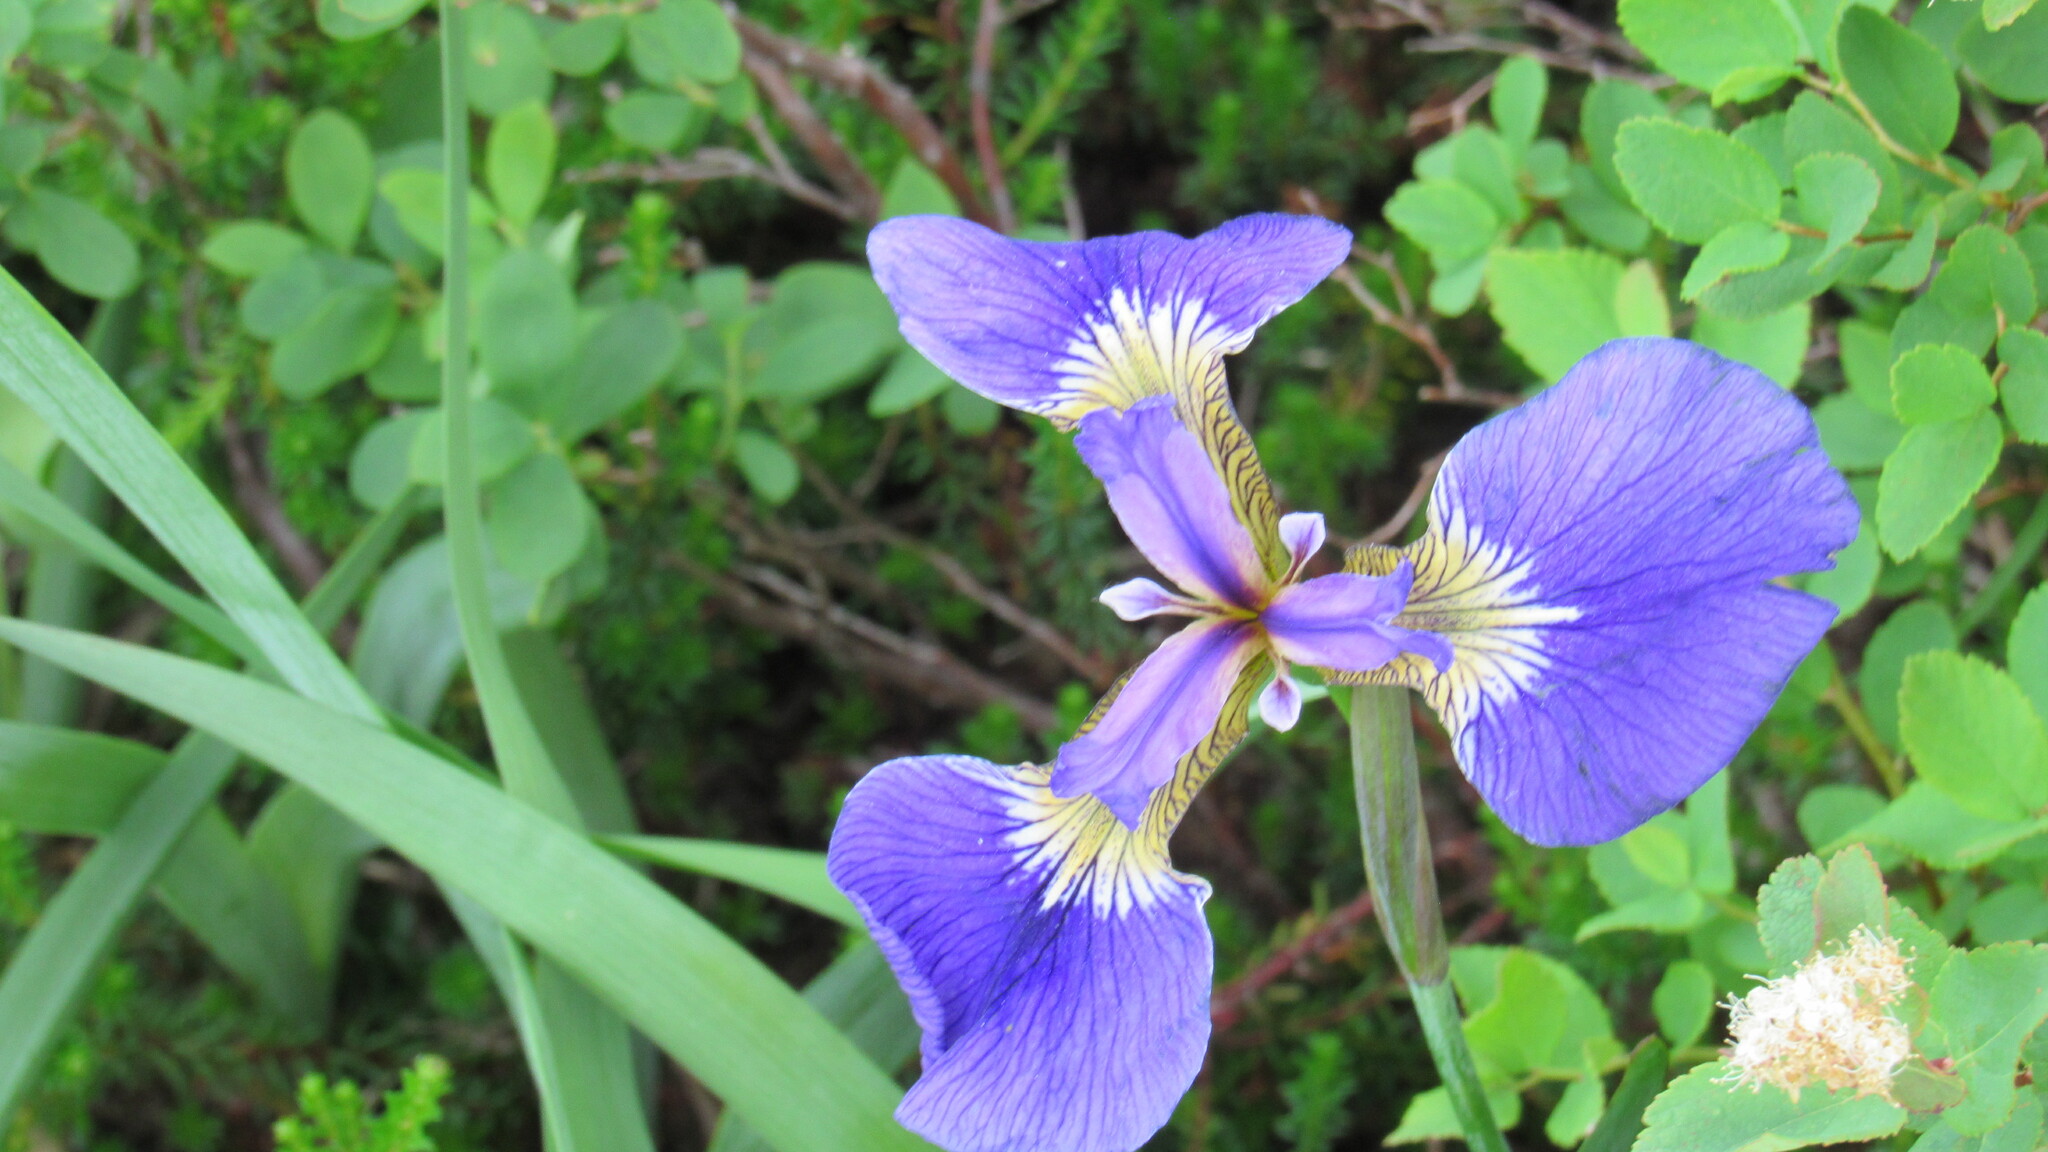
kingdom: Plantae
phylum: Tracheophyta
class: Liliopsida
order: Asparagales
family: Iridaceae
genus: Iris
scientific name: Iris setosa
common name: Arctic blue flag
